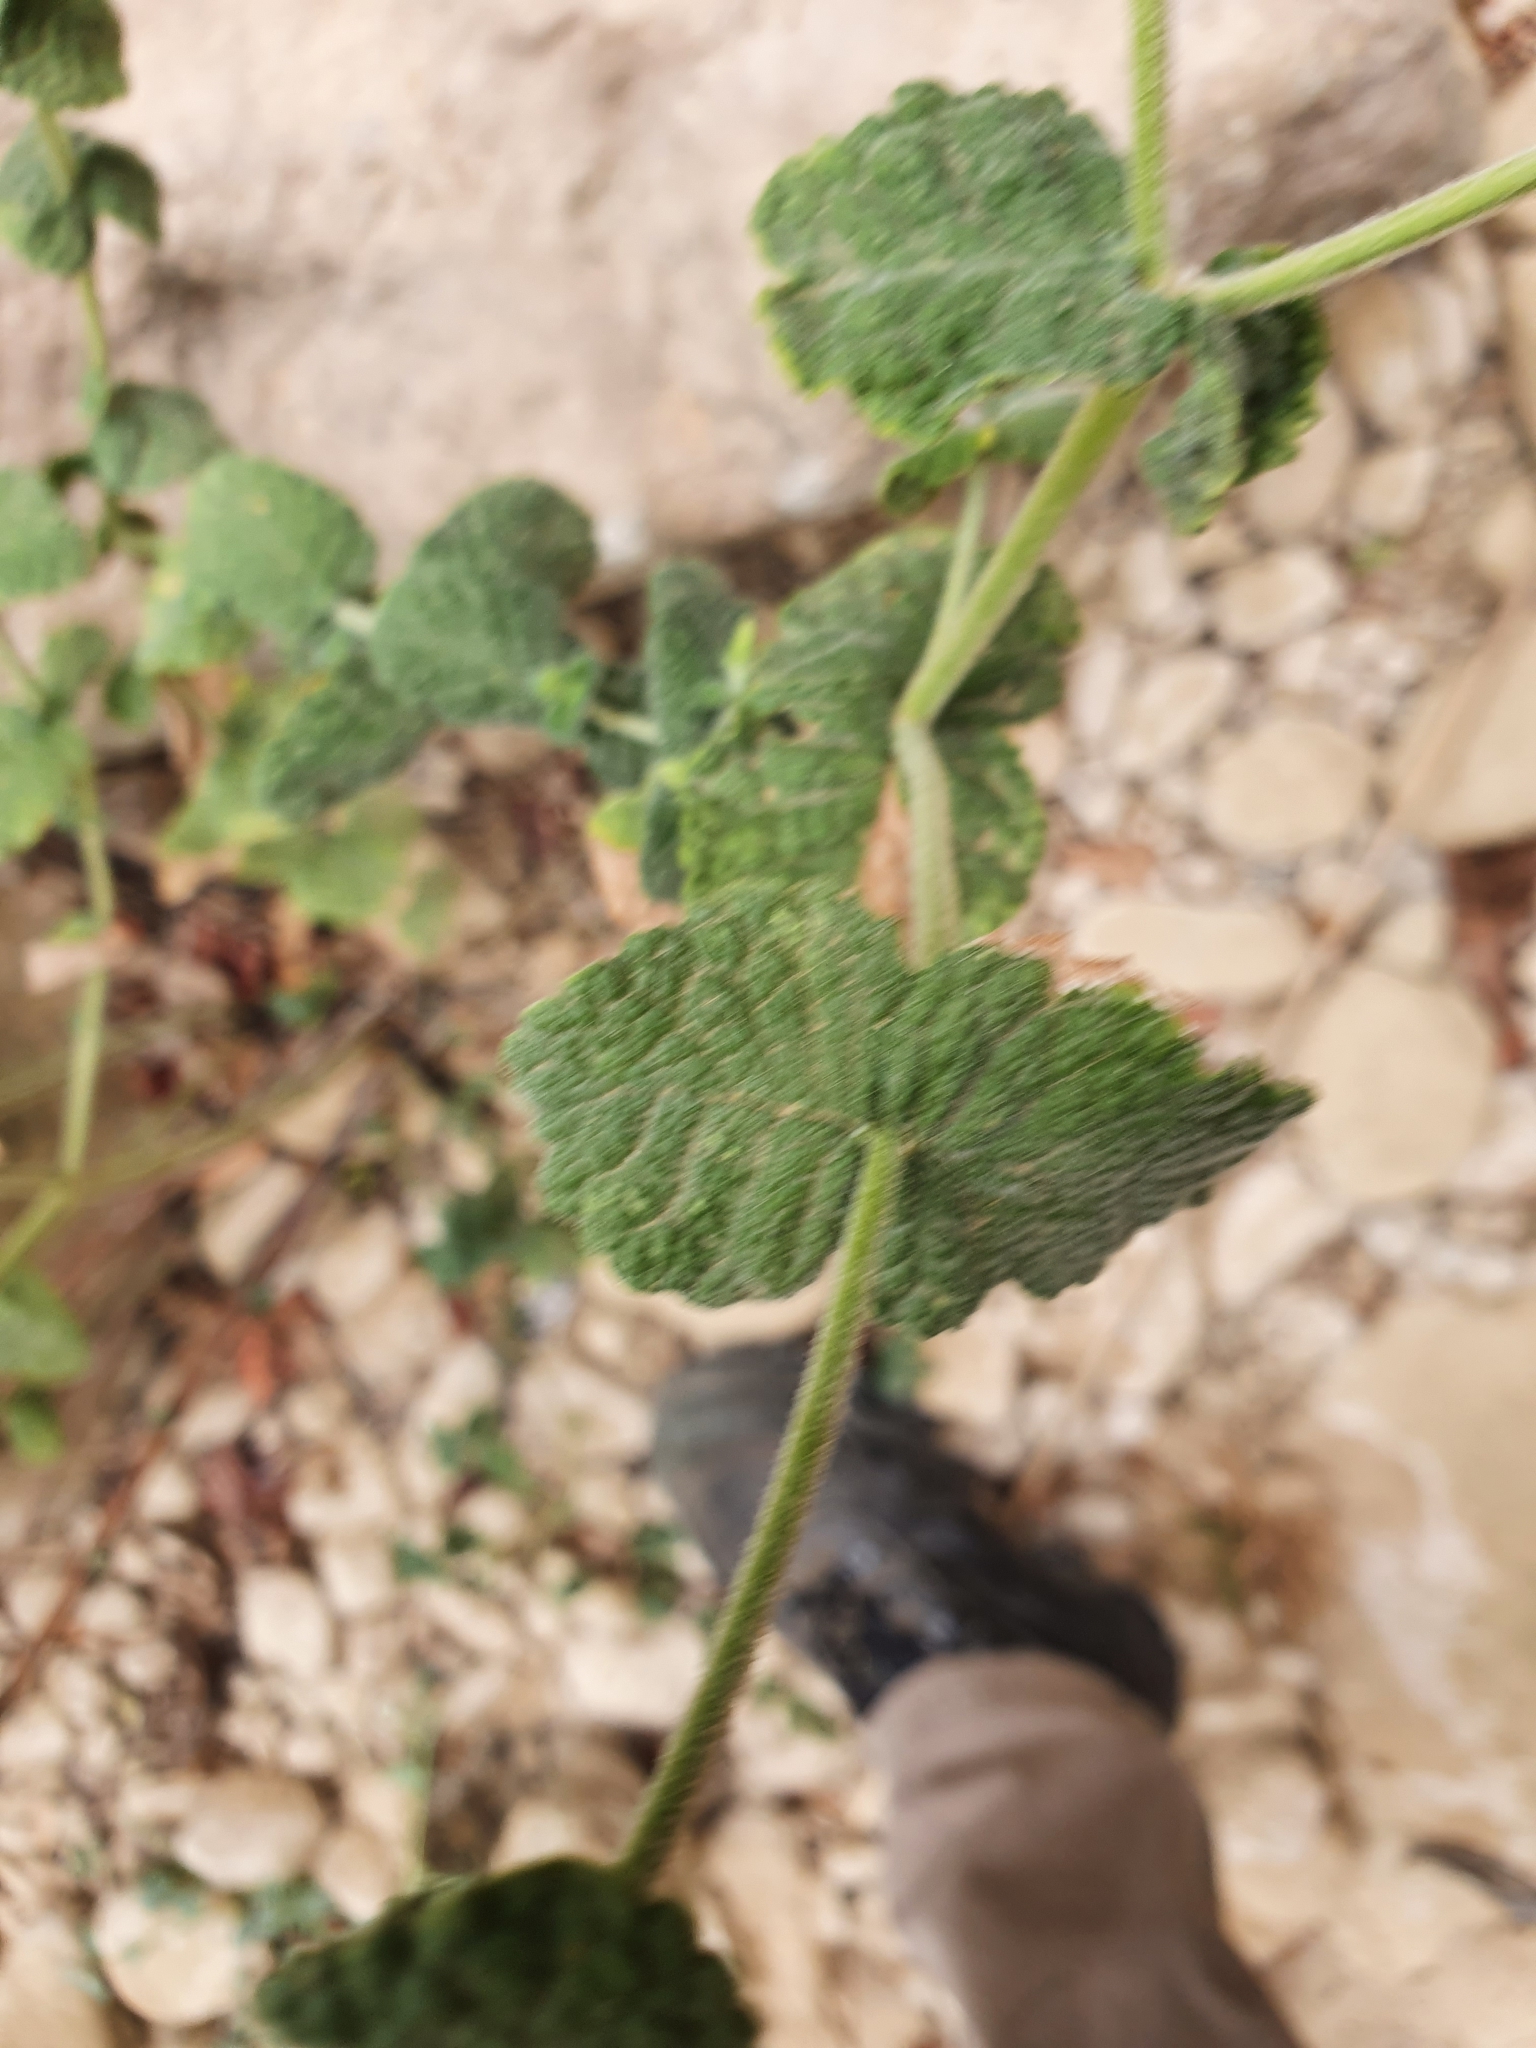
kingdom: Plantae
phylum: Tracheophyta
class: Magnoliopsida
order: Lamiales
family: Lamiaceae
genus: Mentha
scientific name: Mentha suaveolens
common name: Apple mint
